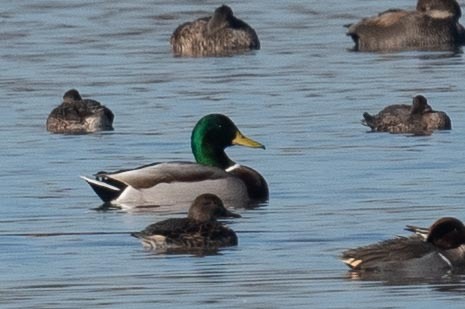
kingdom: Animalia
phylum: Chordata
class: Aves
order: Anseriformes
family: Anatidae
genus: Anas
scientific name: Anas platyrhynchos
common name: Mallard
